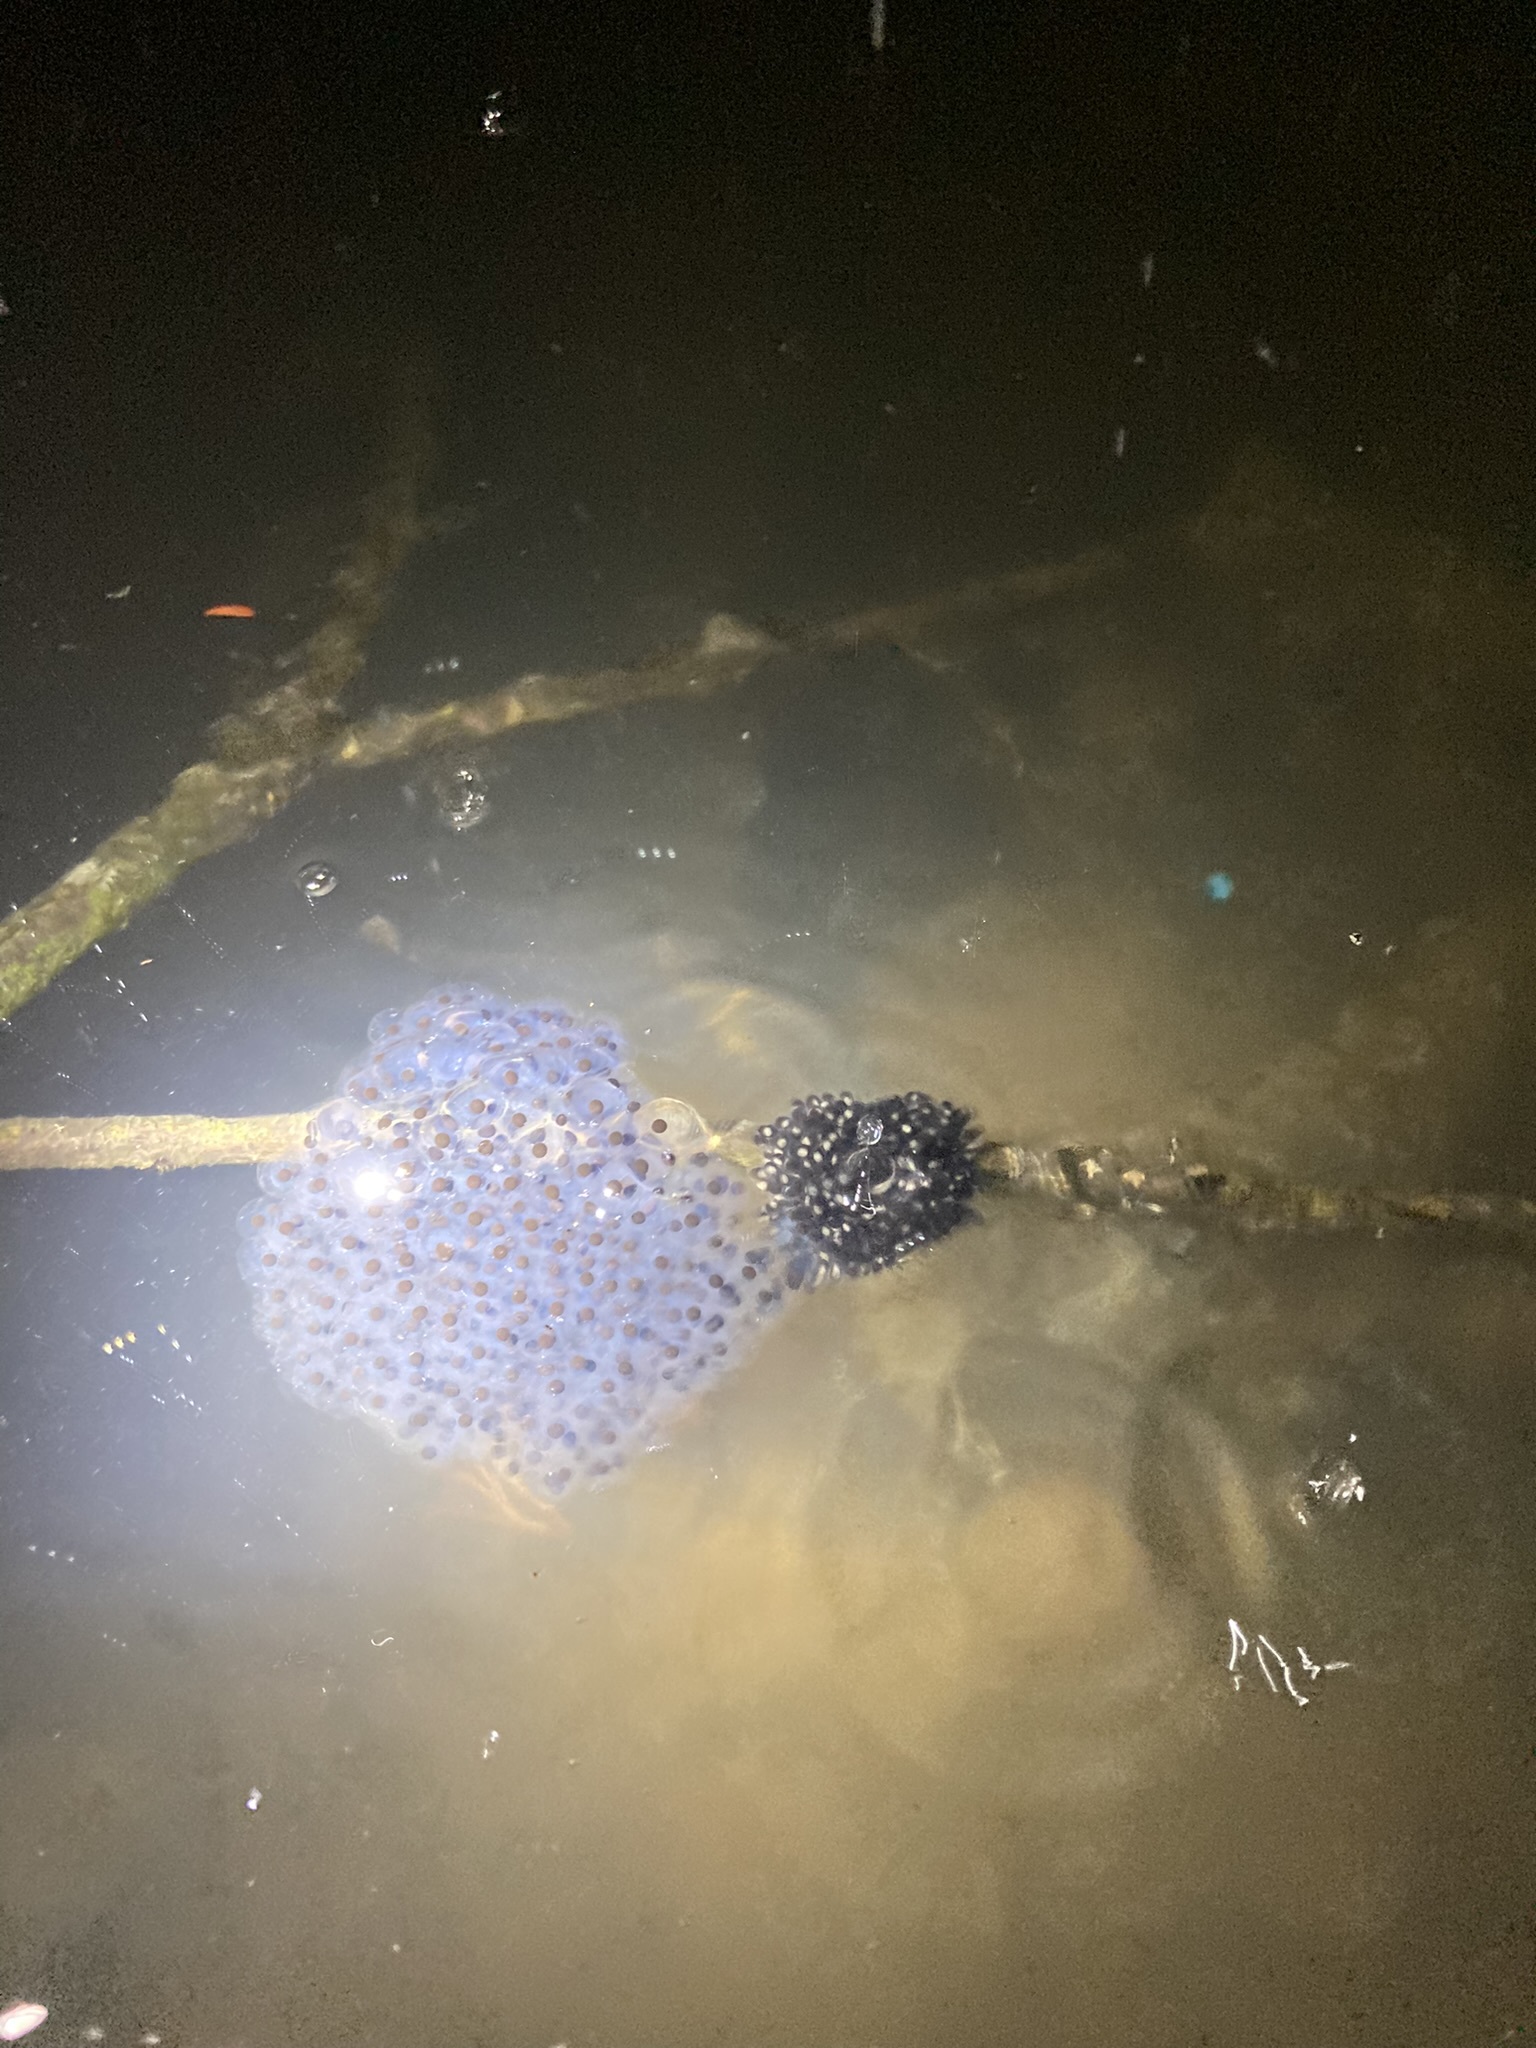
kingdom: Animalia
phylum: Chordata
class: Amphibia
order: Anura
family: Ranidae
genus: Lithobates
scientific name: Lithobates sylvaticus
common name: Wood frog
